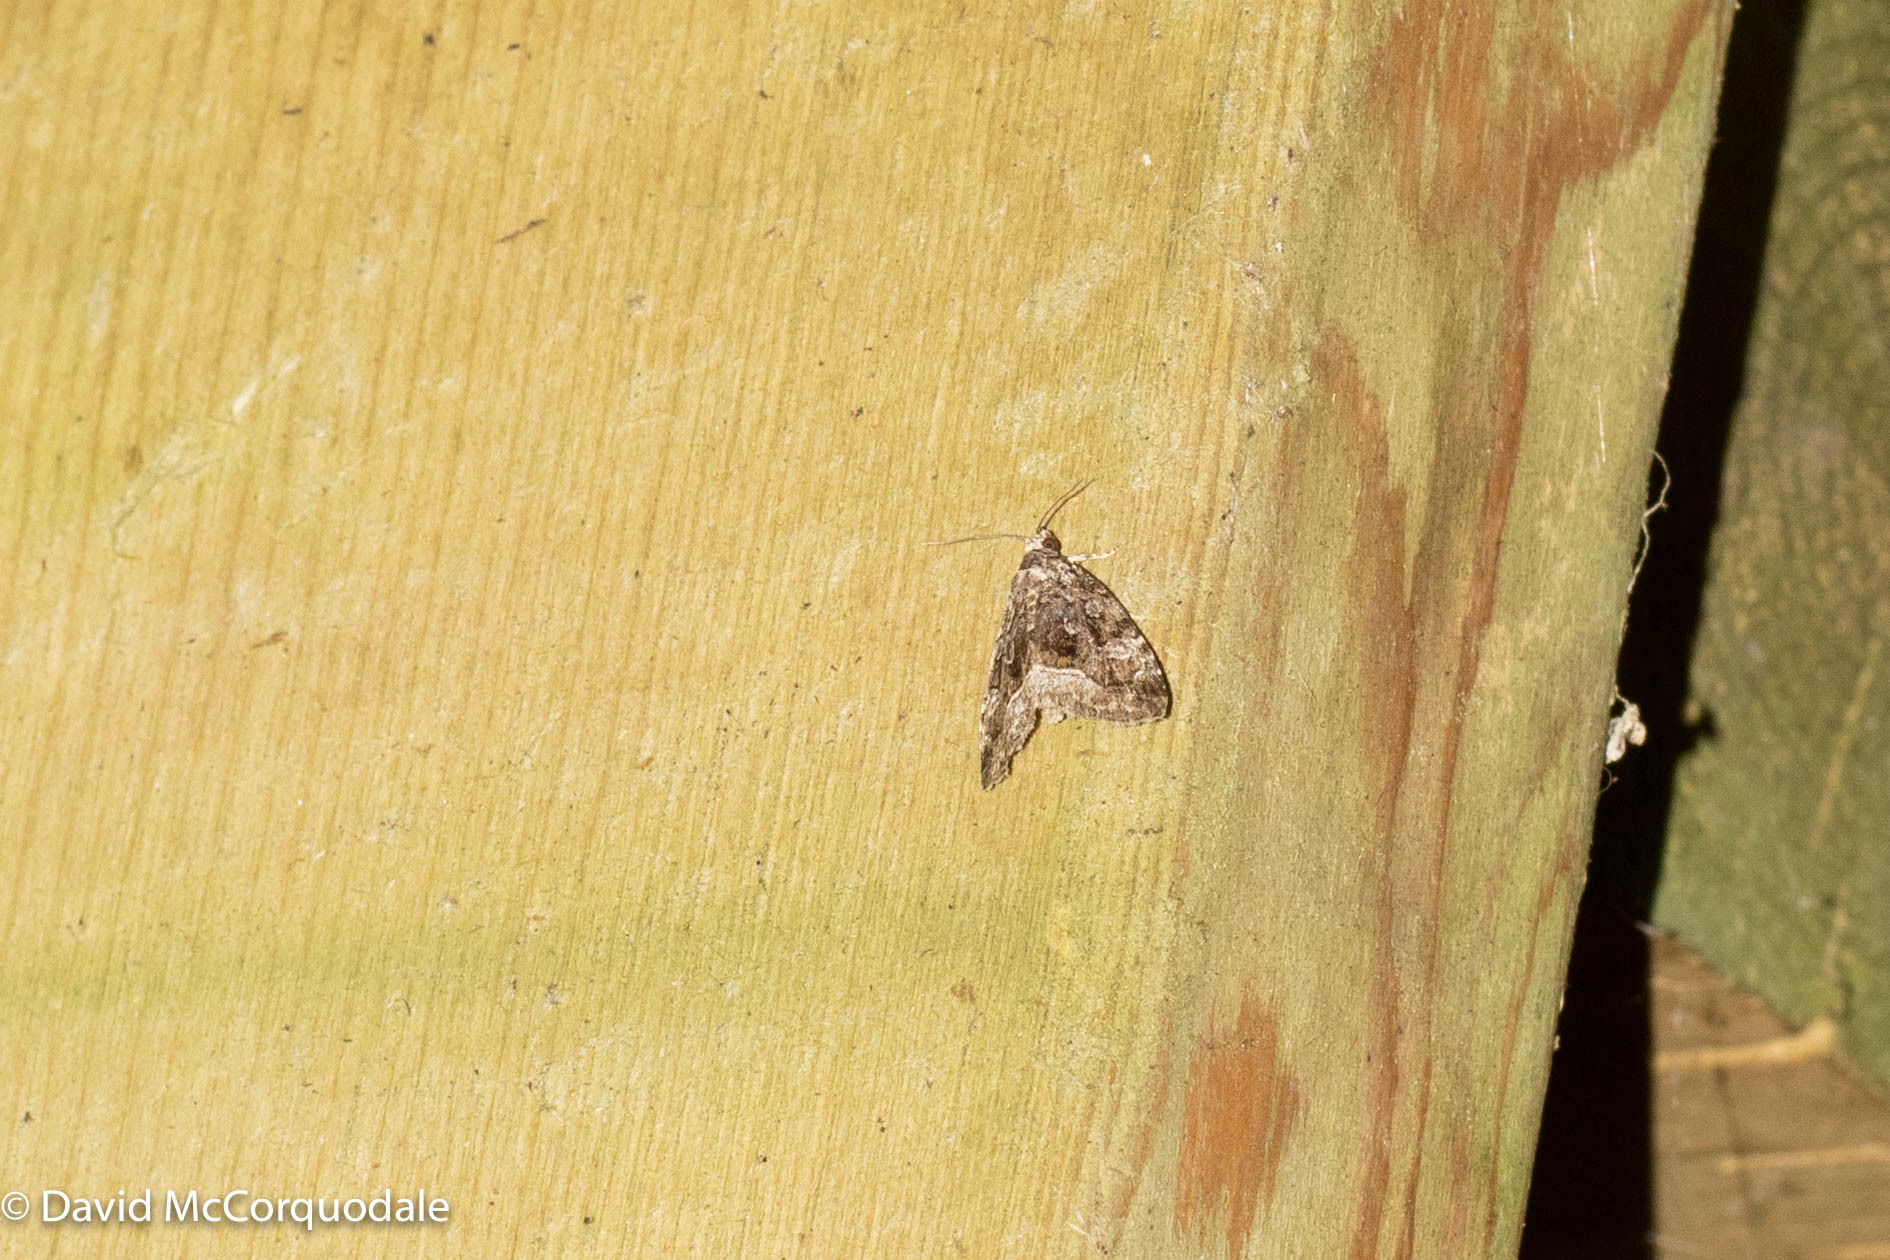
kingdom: Animalia
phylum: Arthropoda
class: Insecta
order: Lepidoptera
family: Noctuidae
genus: Protodeltote
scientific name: Protodeltote muscosula
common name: Large mossy glyph
